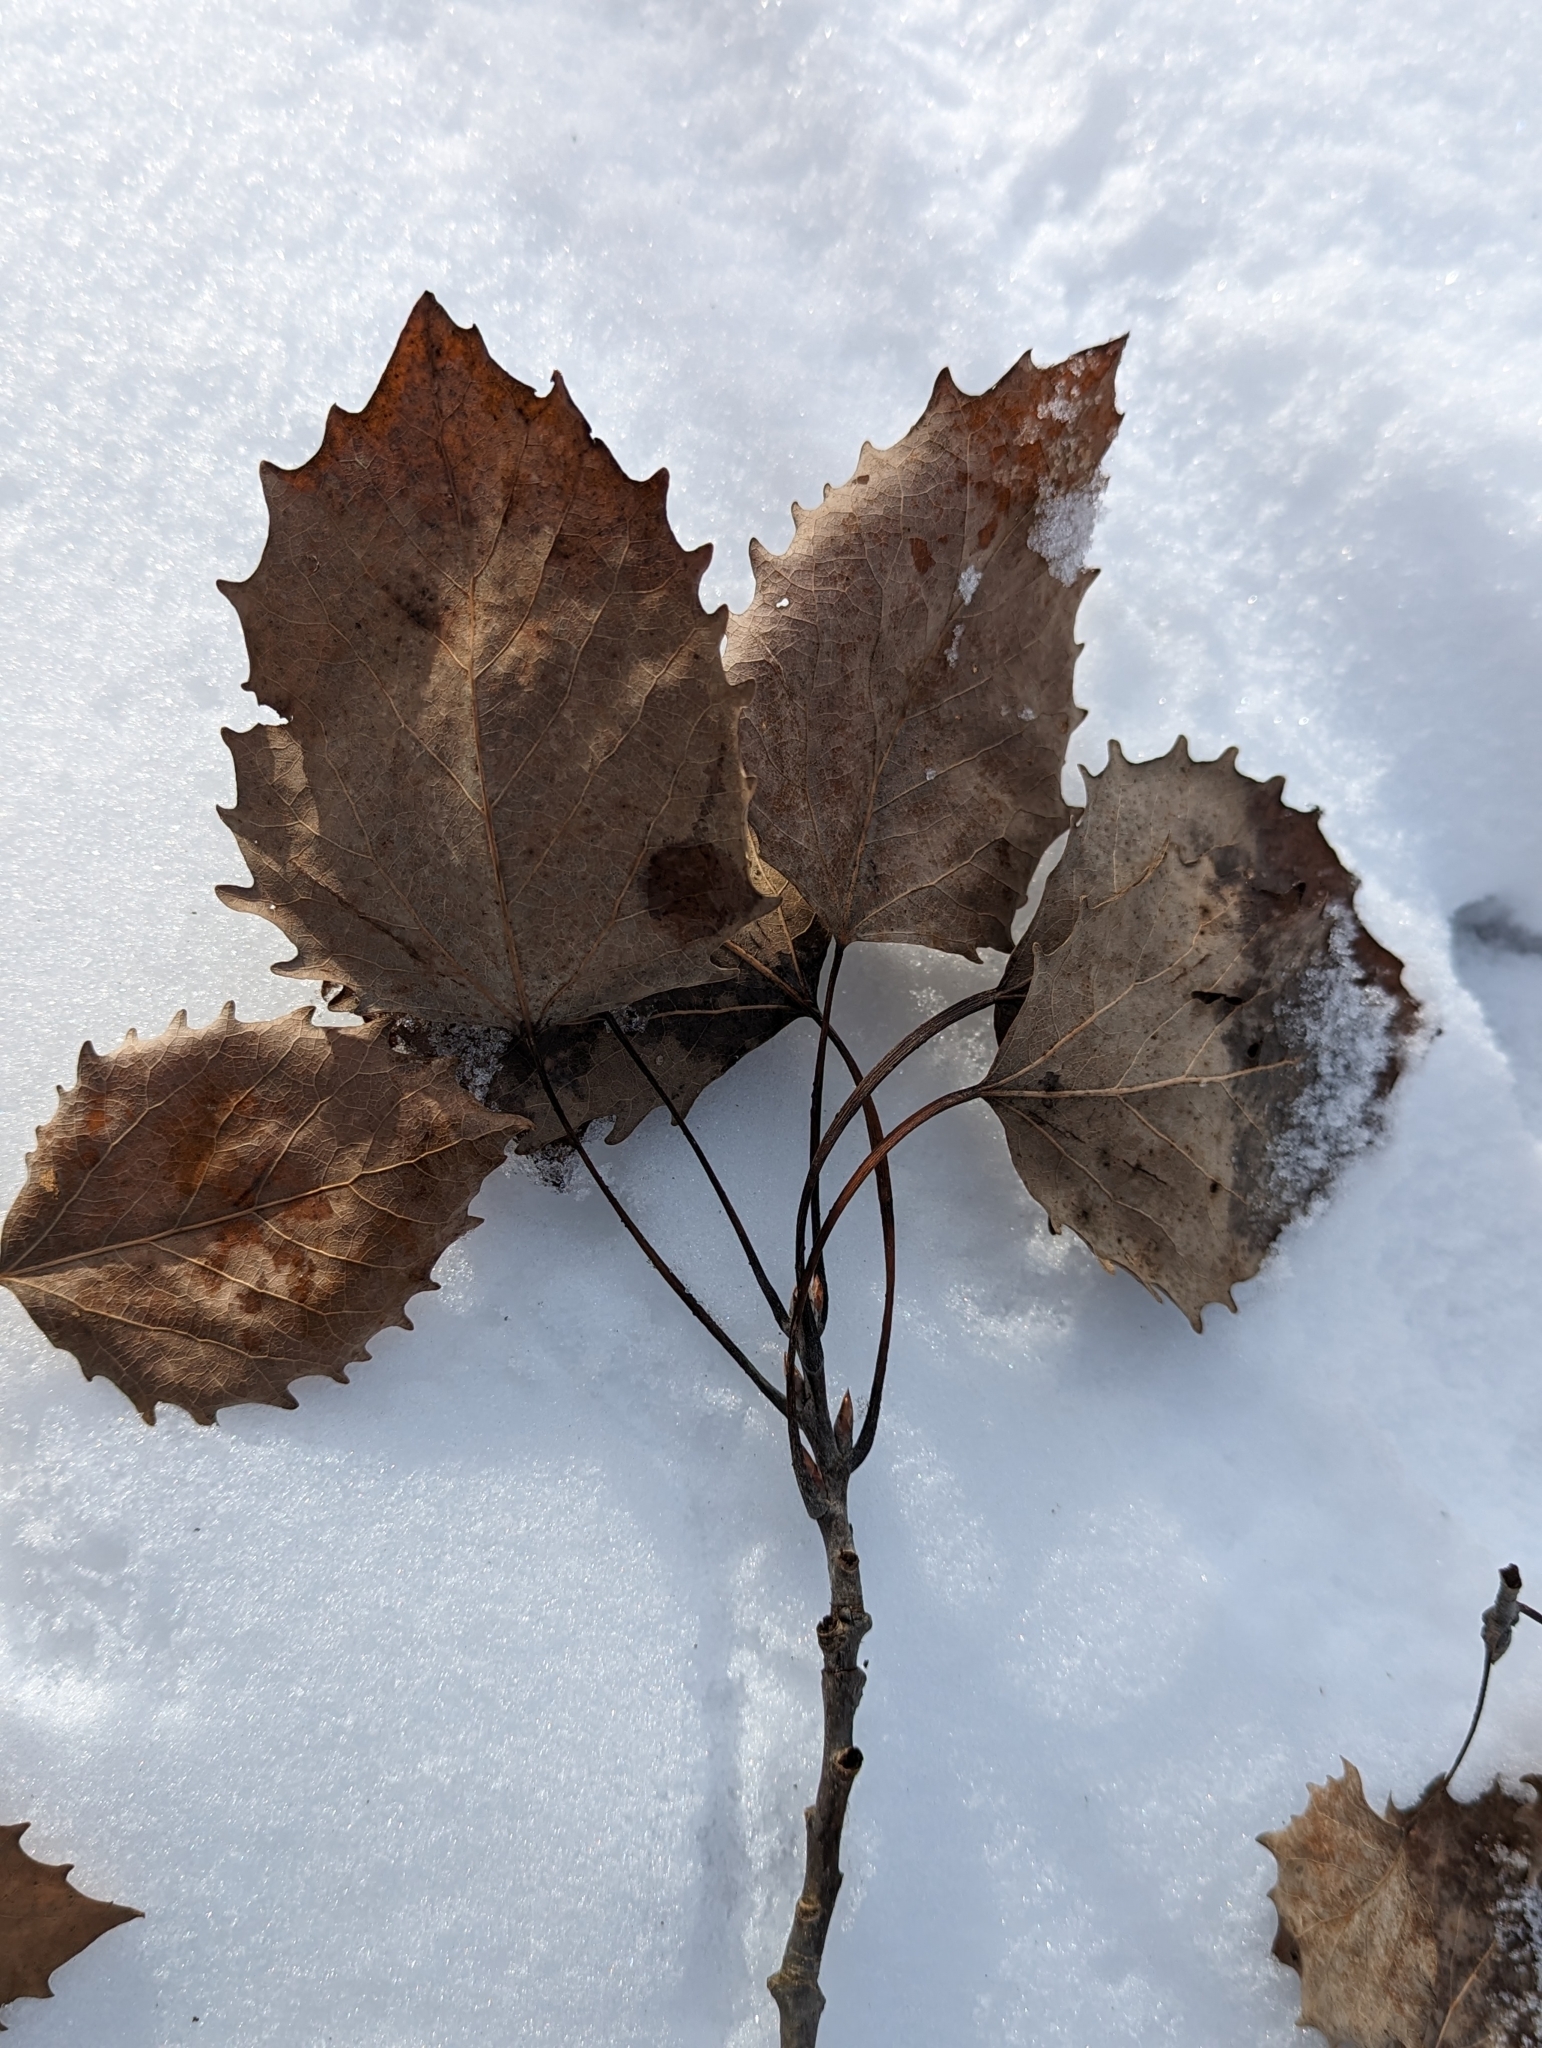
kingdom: Plantae
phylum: Tracheophyta
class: Magnoliopsida
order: Malpighiales
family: Salicaceae
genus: Populus
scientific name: Populus grandidentata
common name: Bigtooth aspen
